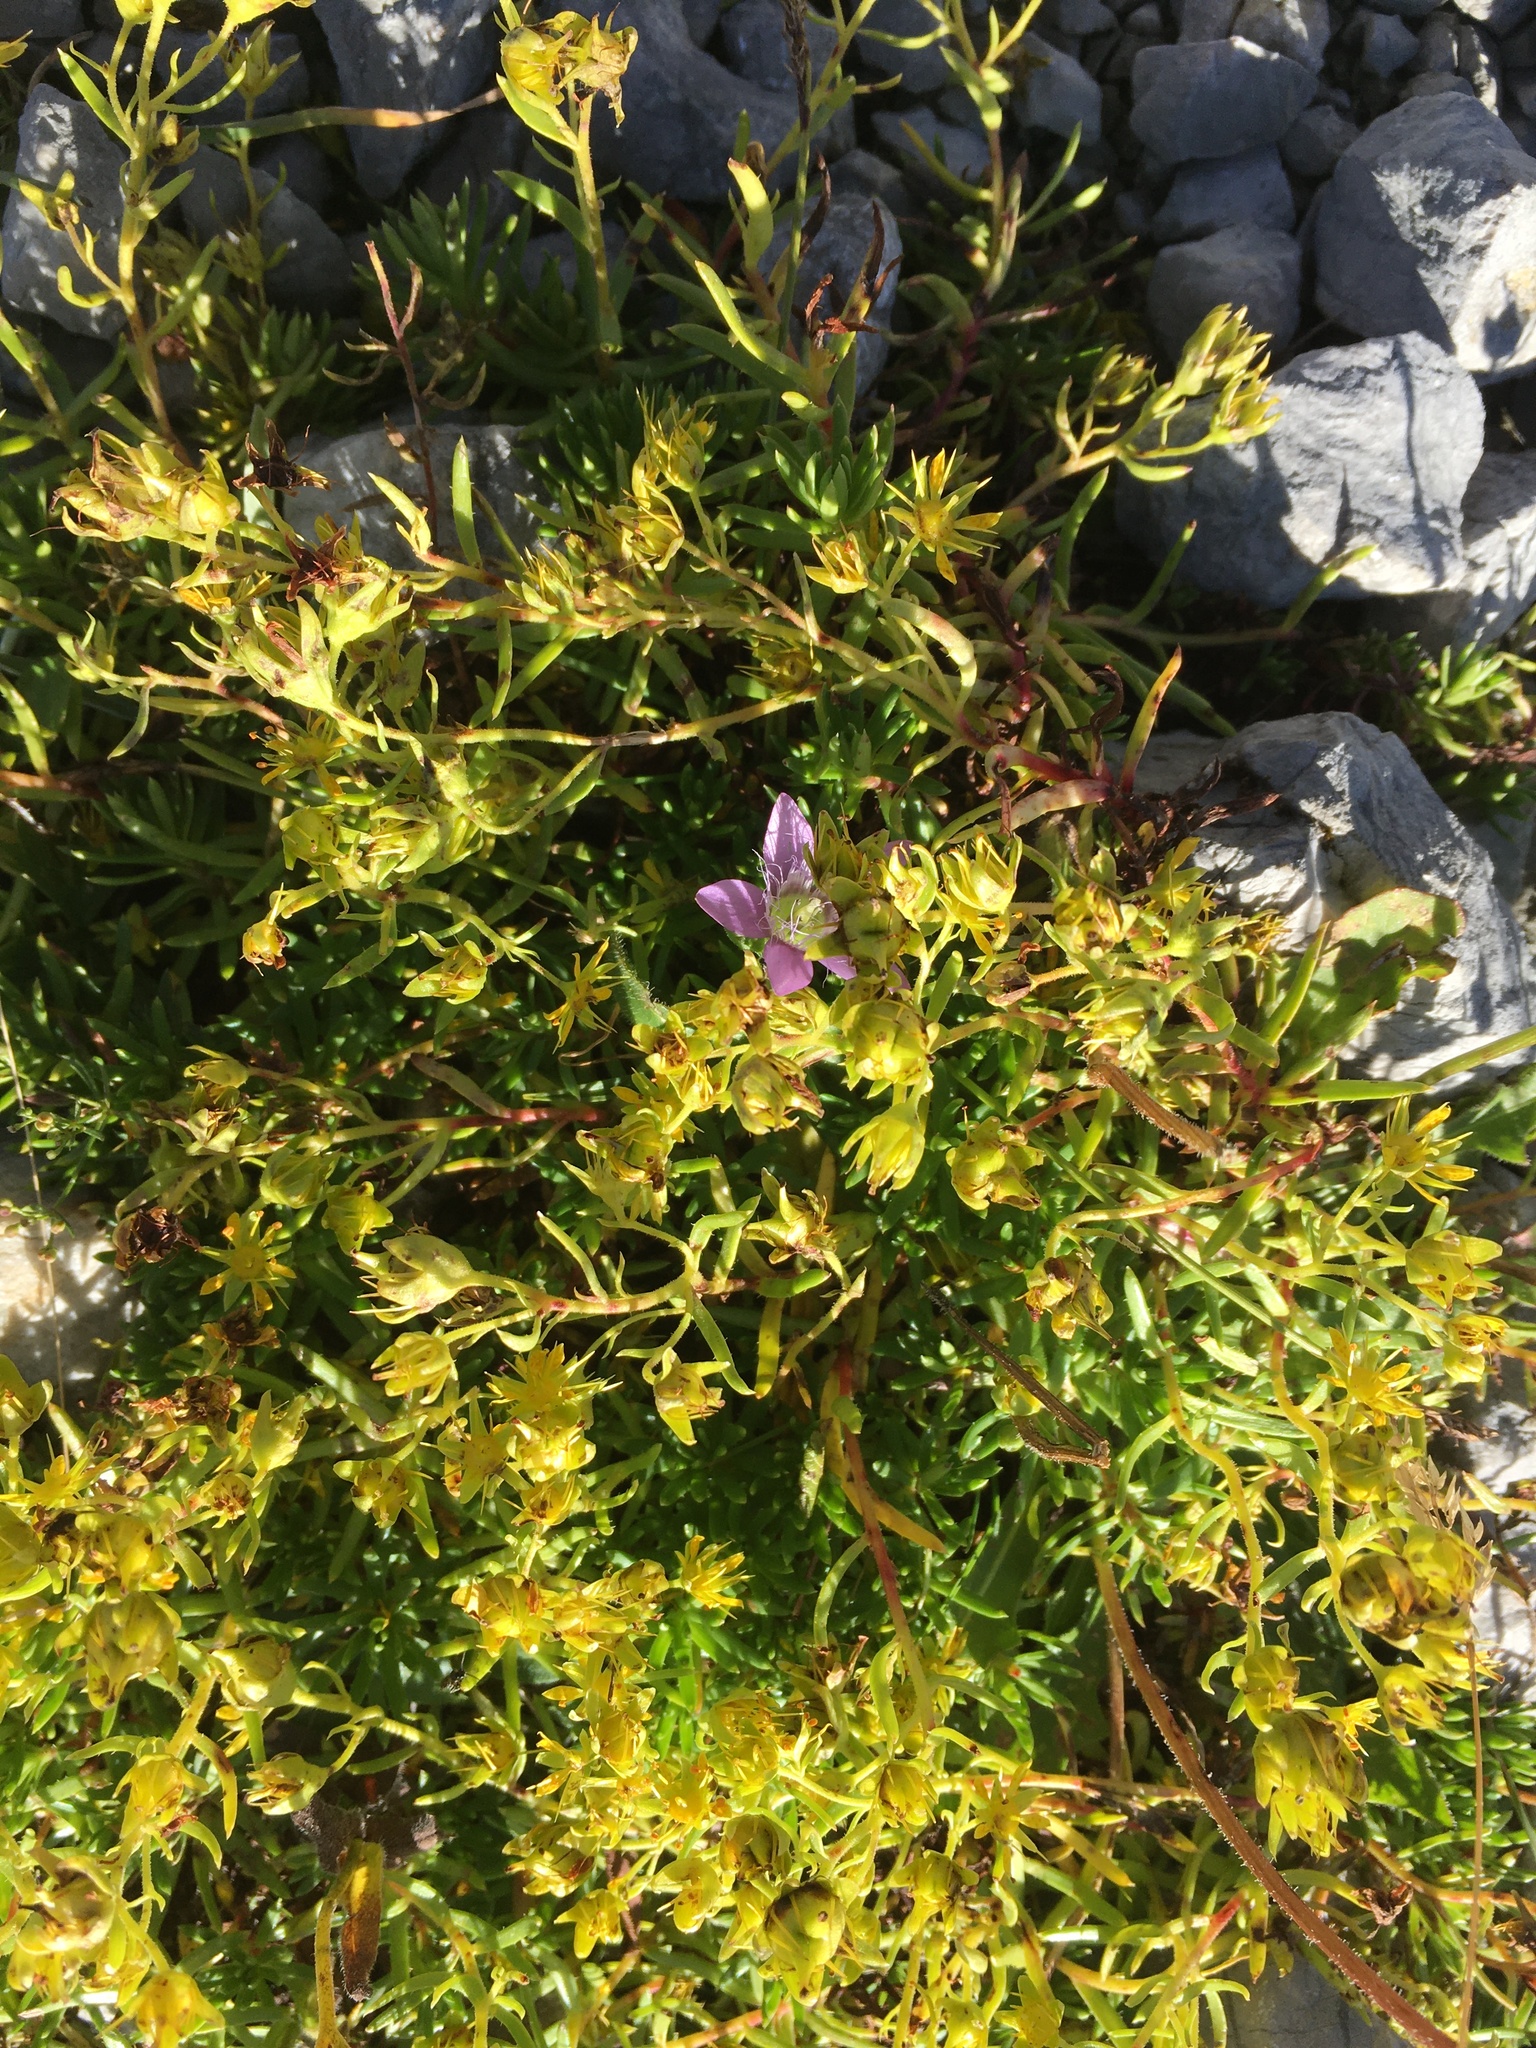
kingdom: Plantae
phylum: Tracheophyta
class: Magnoliopsida
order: Saxifragales
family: Saxifragaceae
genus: Saxifraga
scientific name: Saxifraga aizoides
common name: Yellow mountain saxifrage
